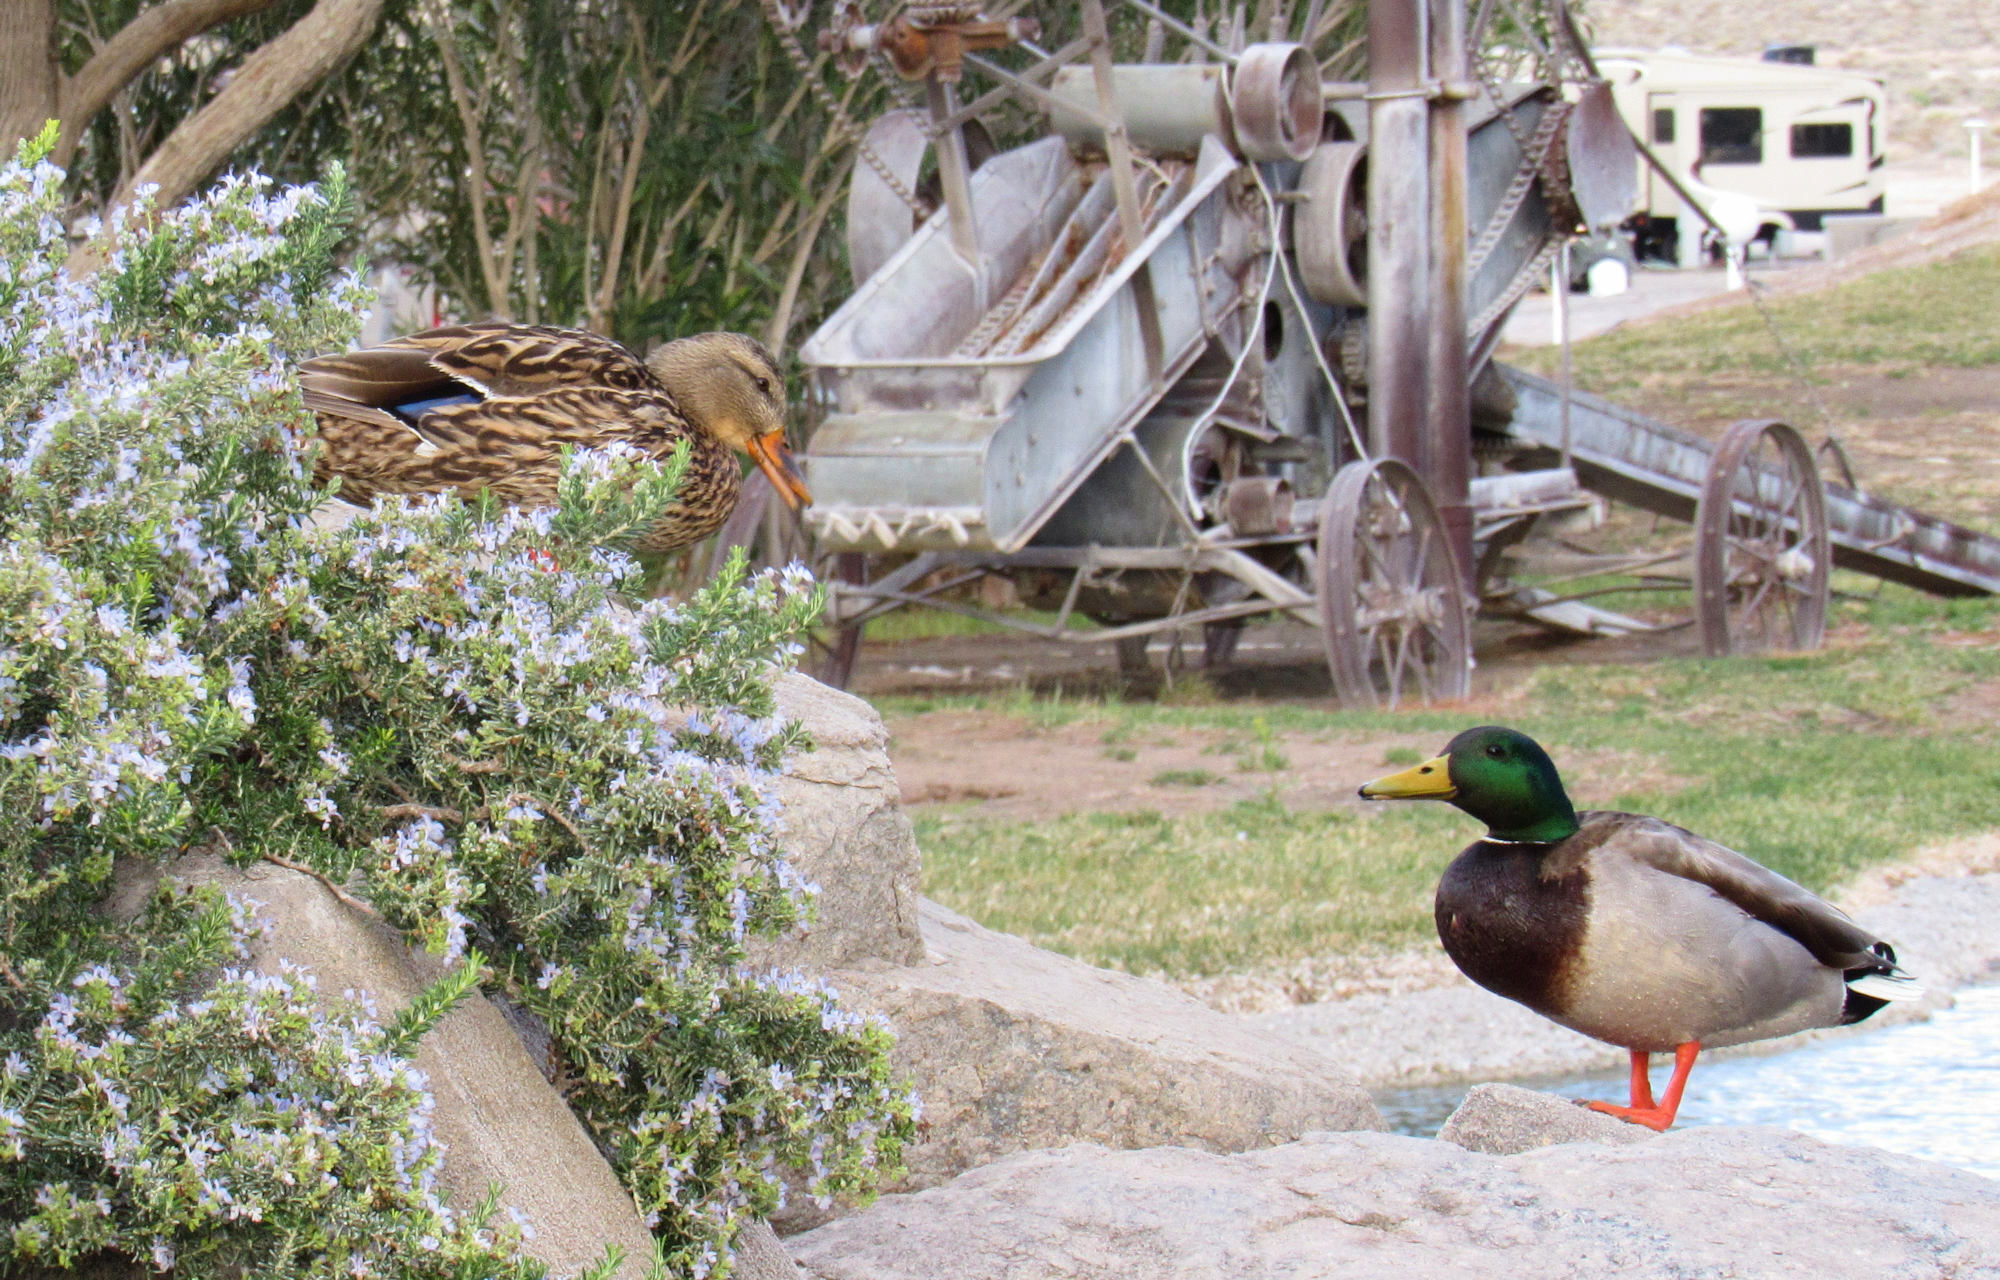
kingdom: Animalia
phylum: Chordata
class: Aves
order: Anseriformes
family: Anatidae
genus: Anas
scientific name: Anas platyrhynchos
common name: Mallard
